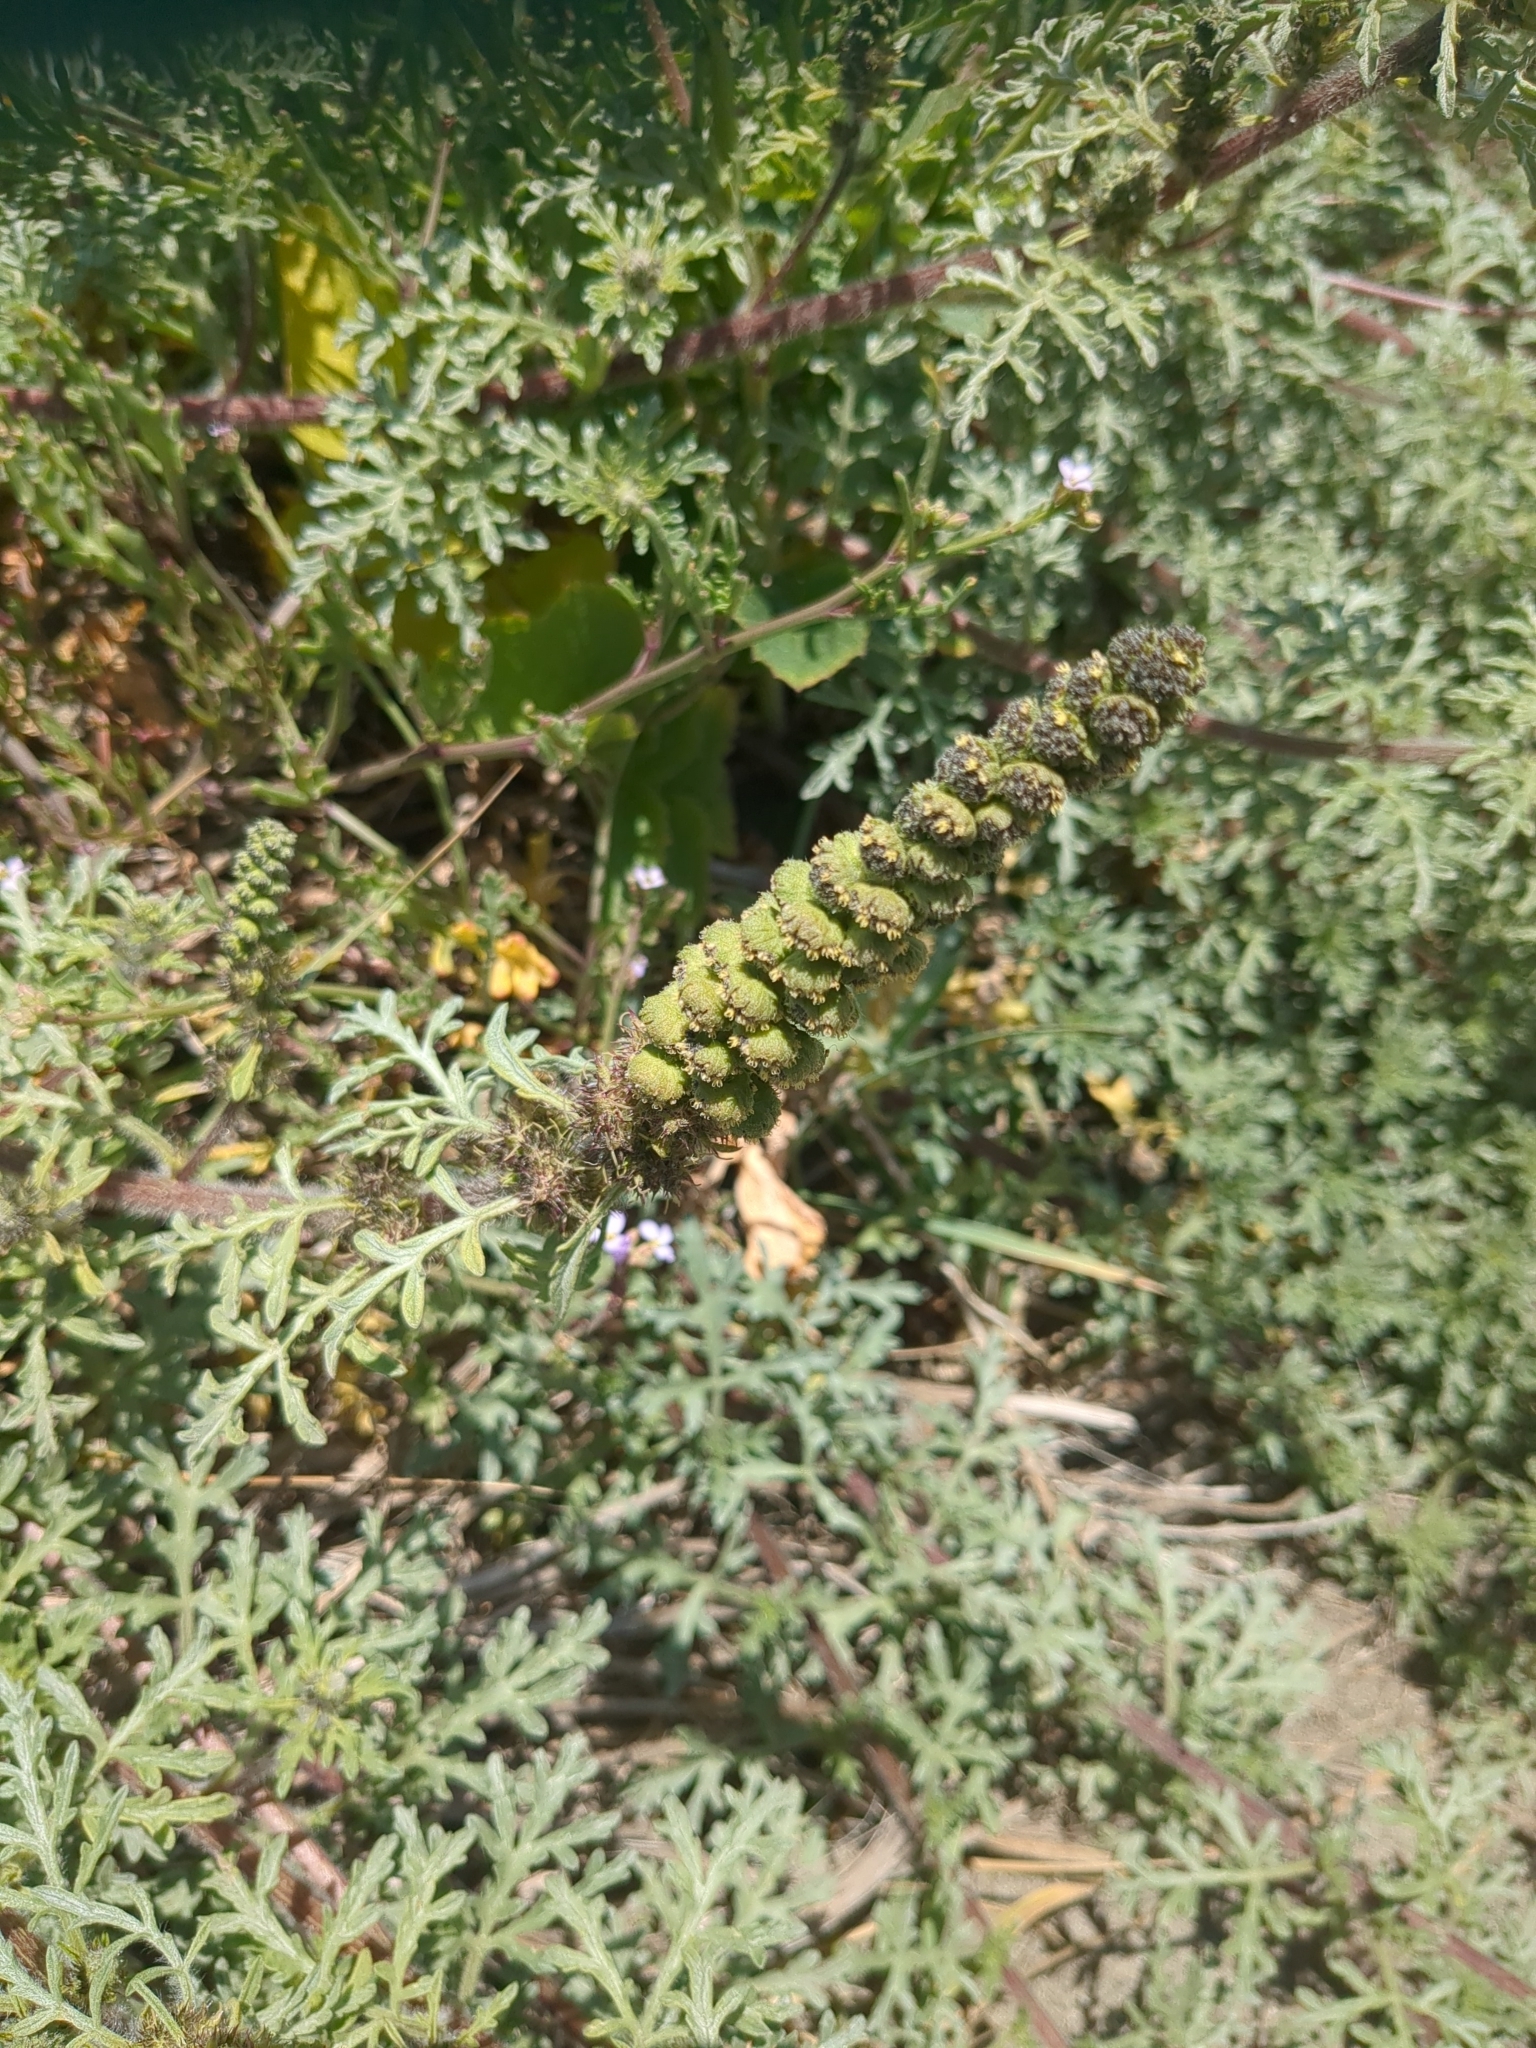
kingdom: Plantae
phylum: Tracheophyta
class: Magnoliopsida
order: Asterales
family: Asteraceae
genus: Ambrosia
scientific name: Ambrosia chamissonis
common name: Beachbur
